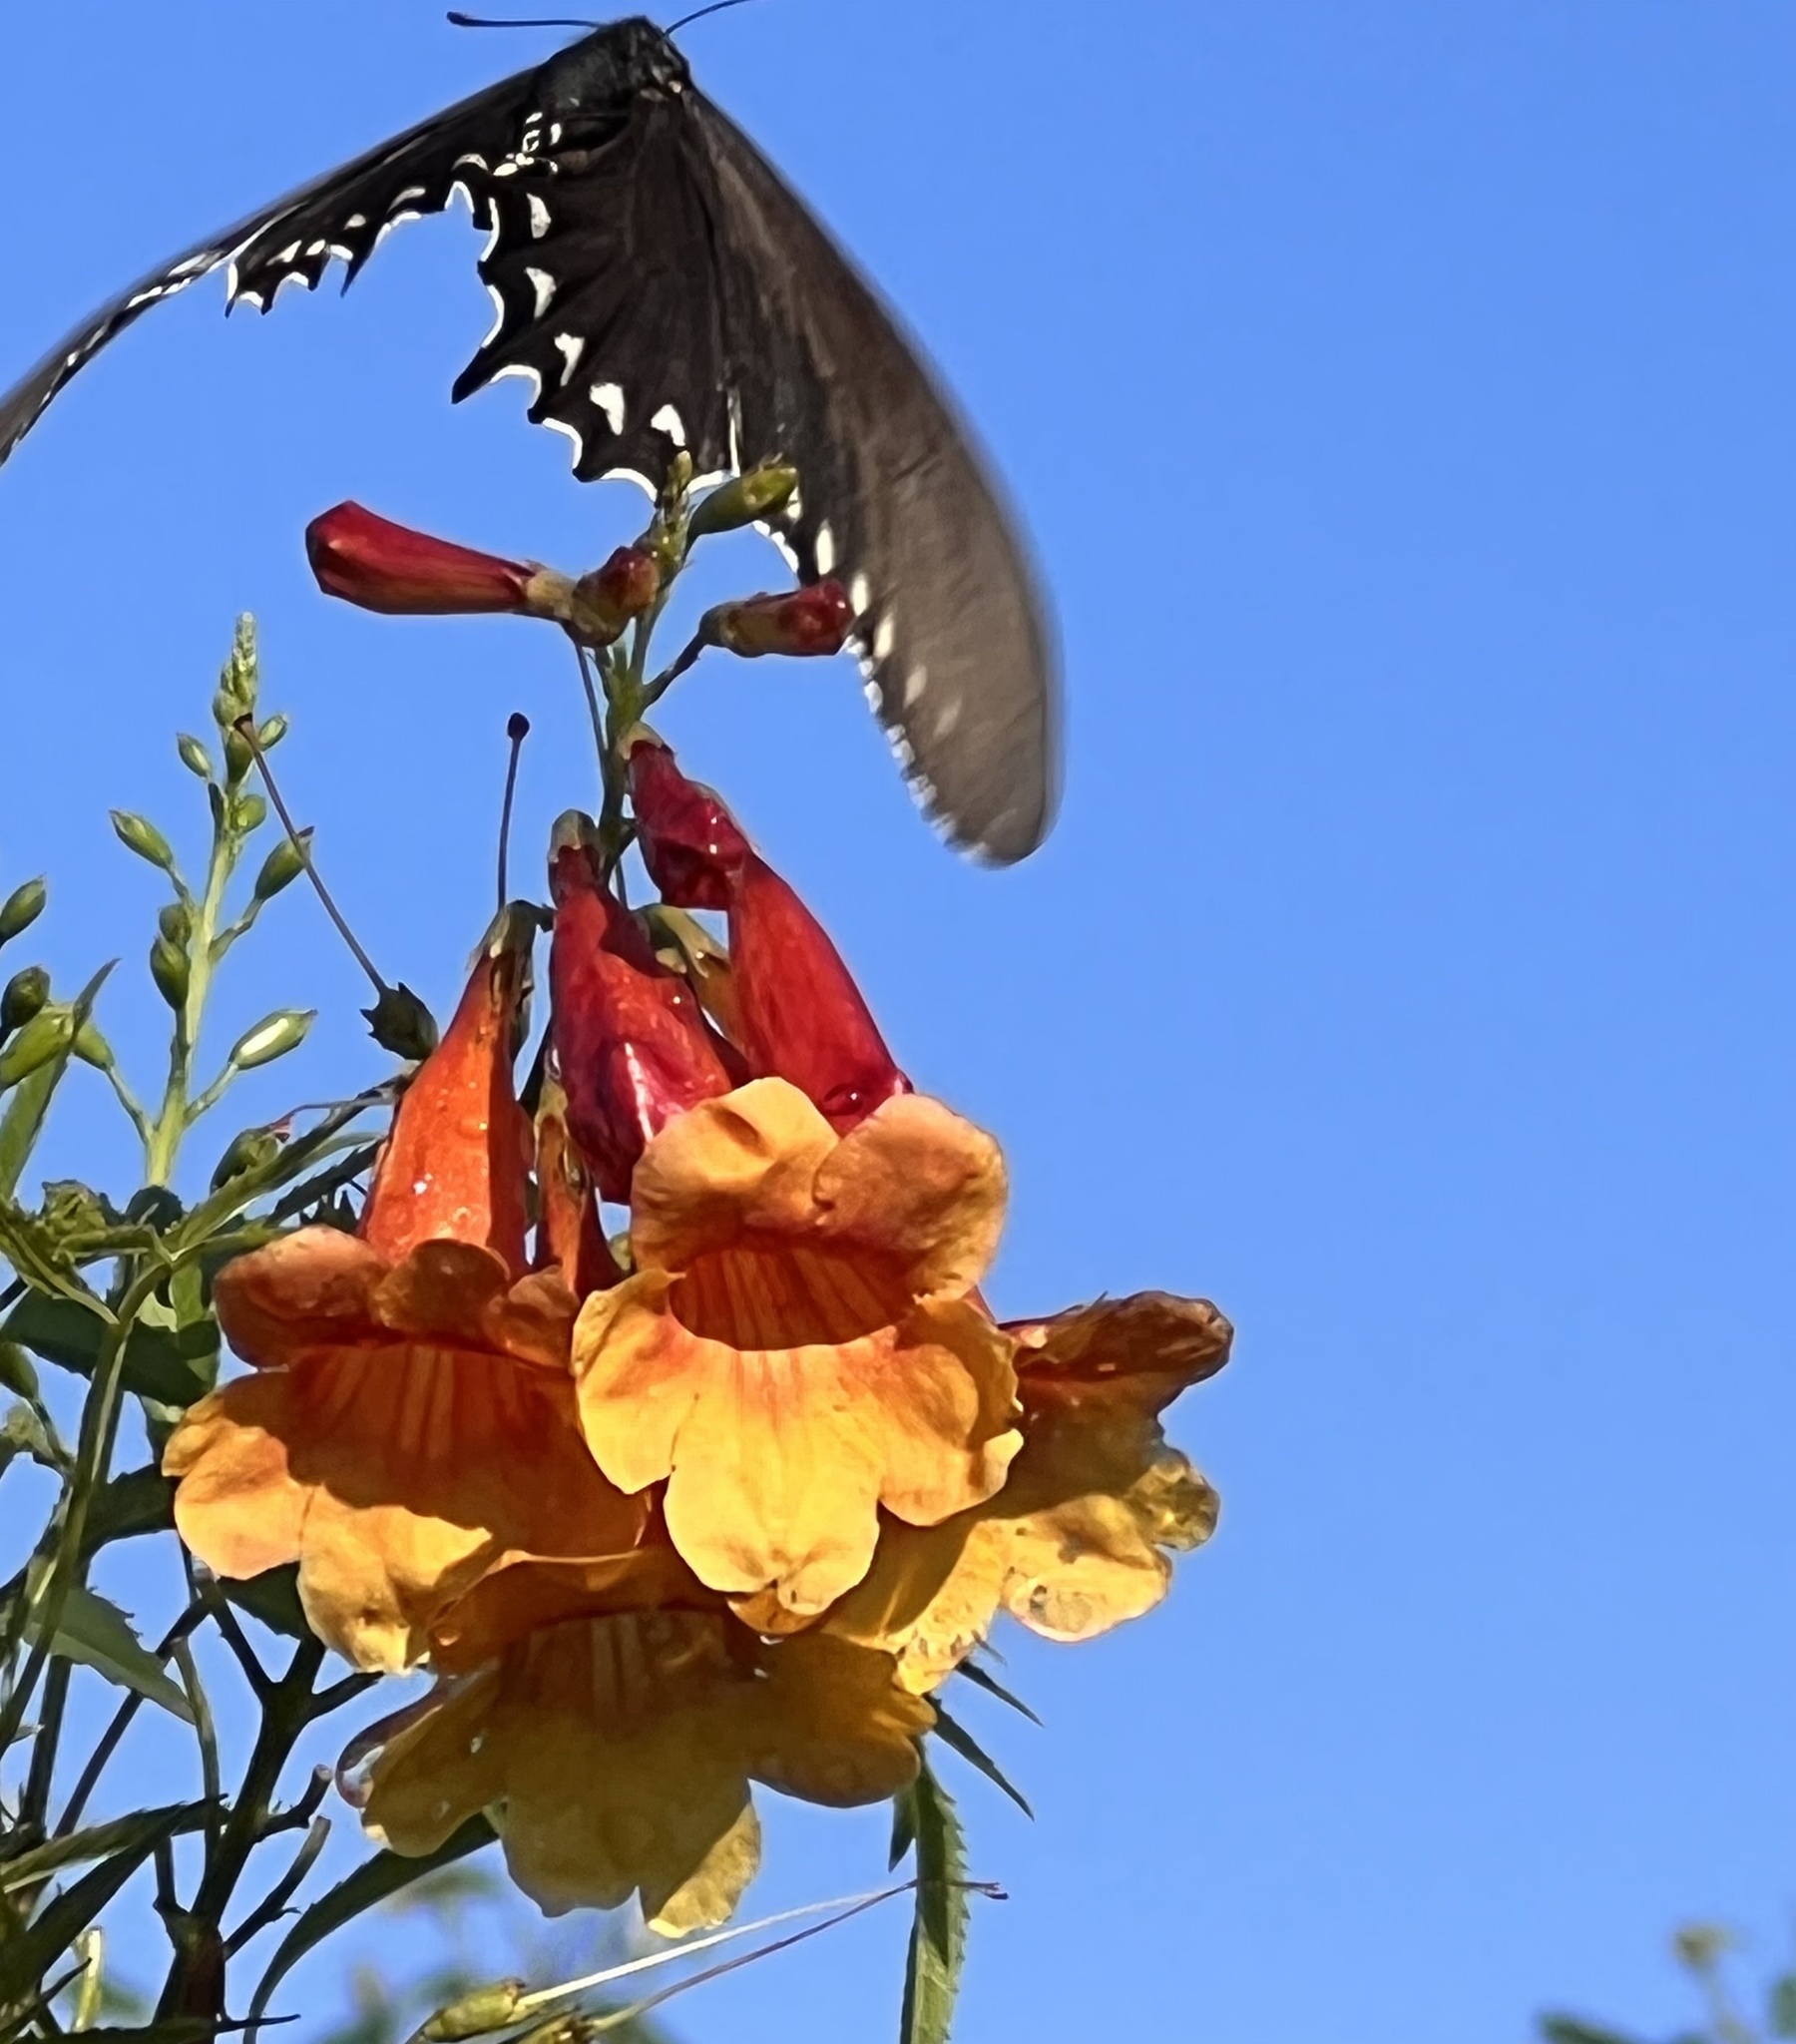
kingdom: Animalia
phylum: Arthropoda
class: Insecta
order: Lepidoptera
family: Papilionidae
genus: Battus
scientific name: Battus philenor
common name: Pipevine swallowtail
